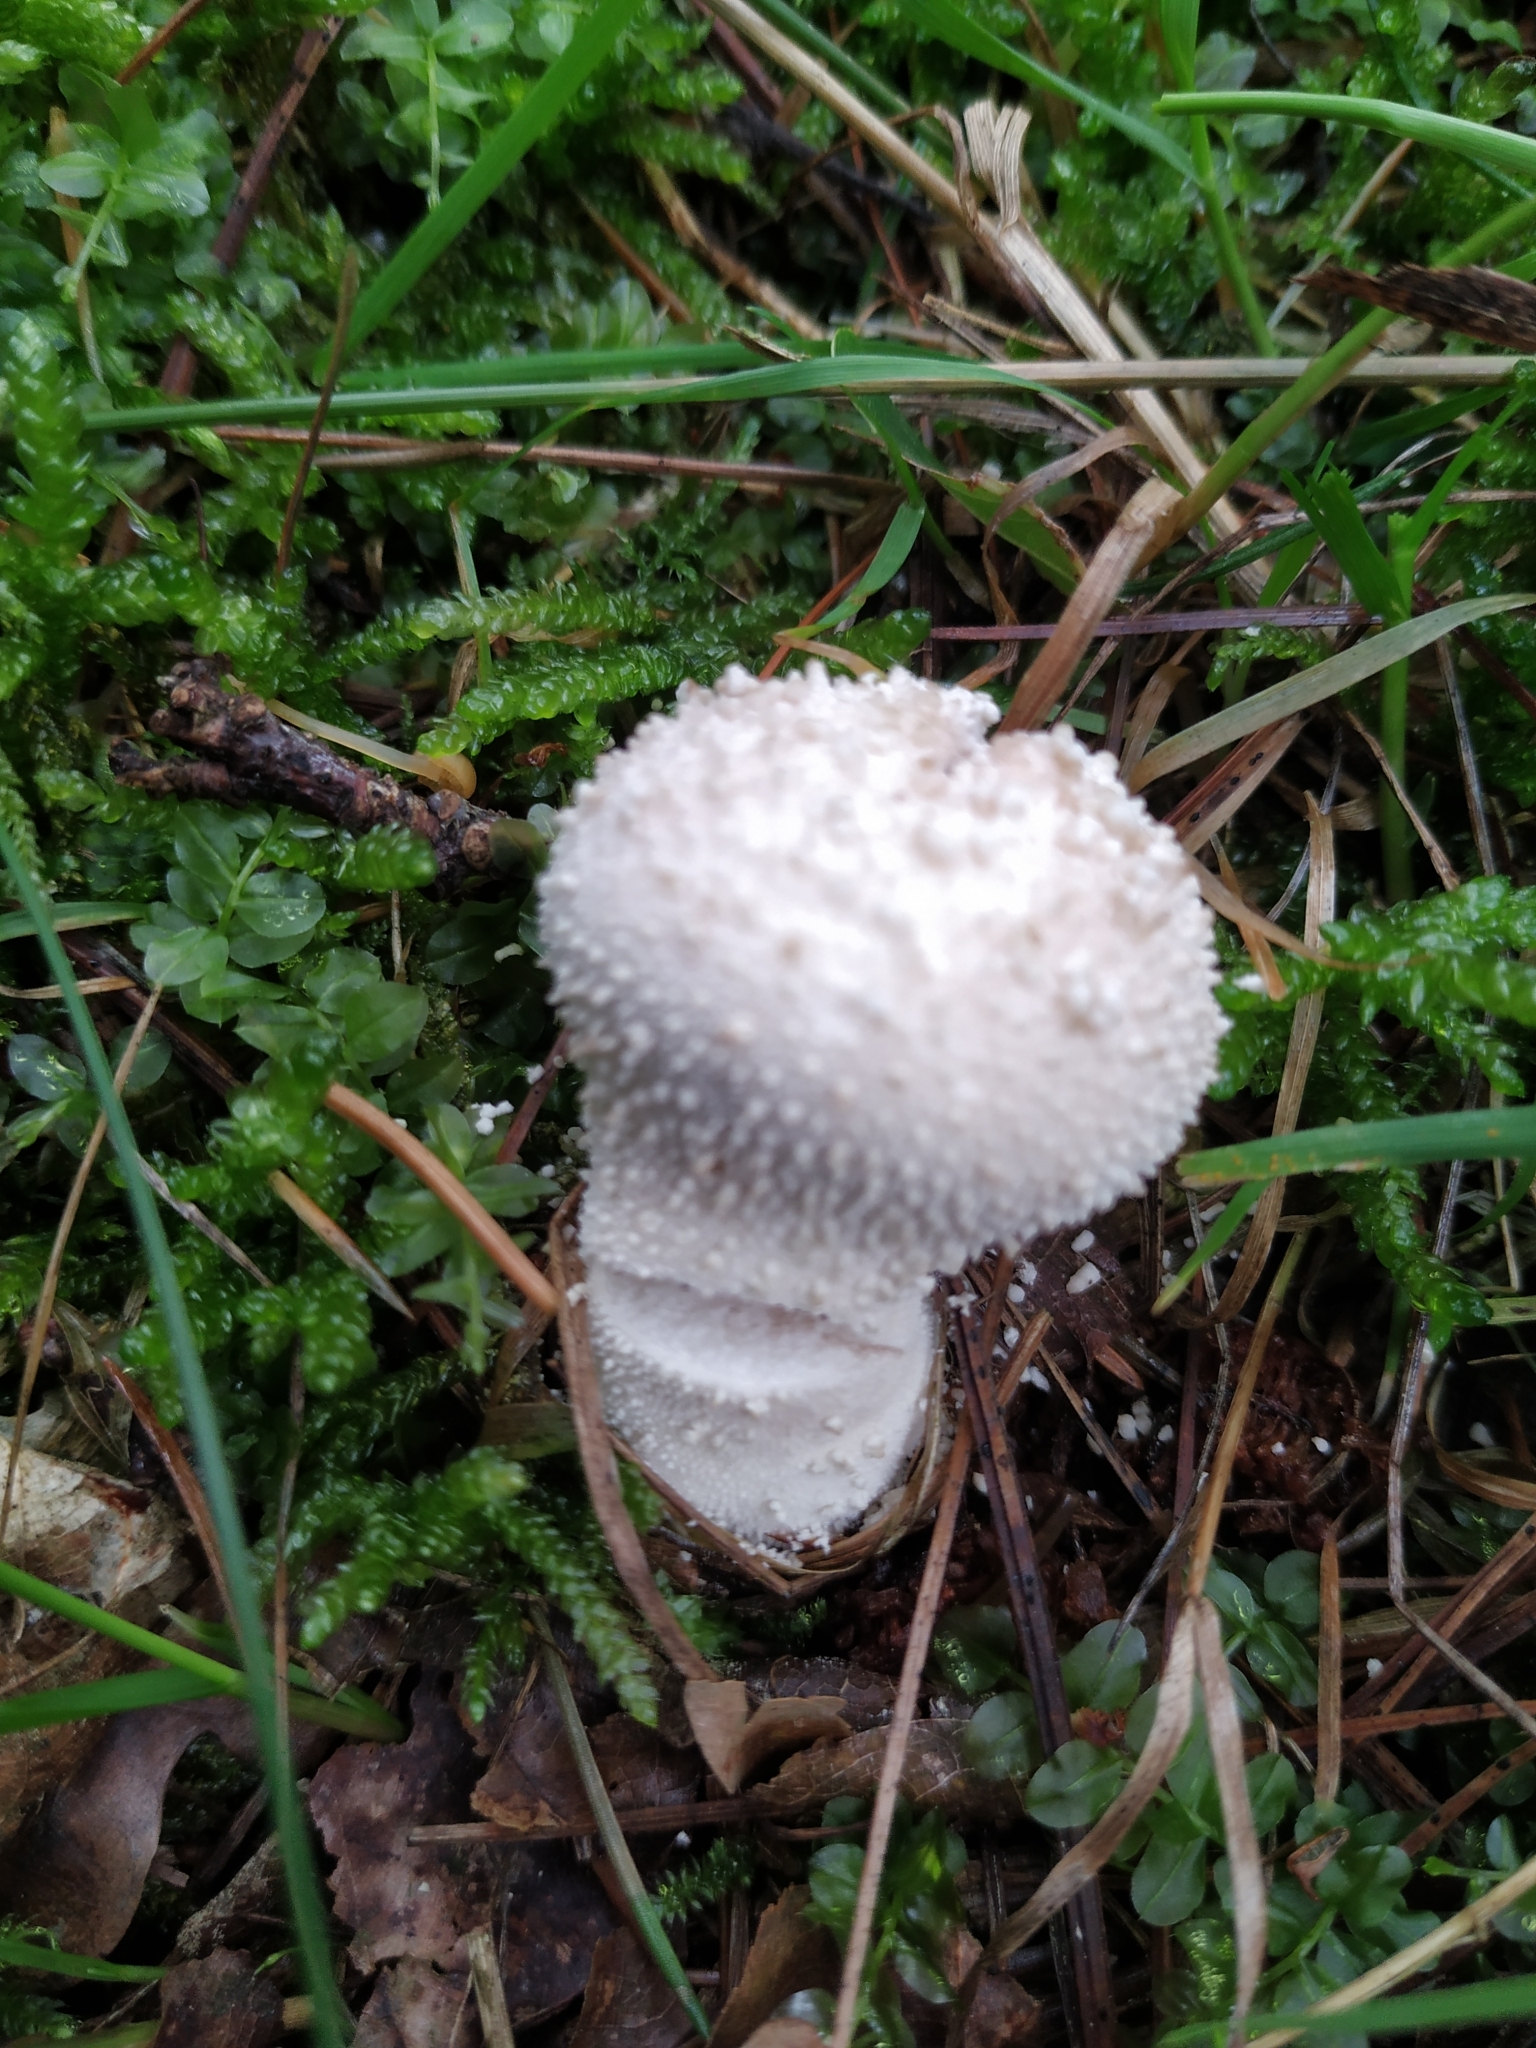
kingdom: Fungi
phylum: Basidiomycota
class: Agaricomycetes
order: Agaricales
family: Lycoperdaceae
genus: Lycoperdon
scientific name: Lycoperdon perlatum
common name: Common puffball
